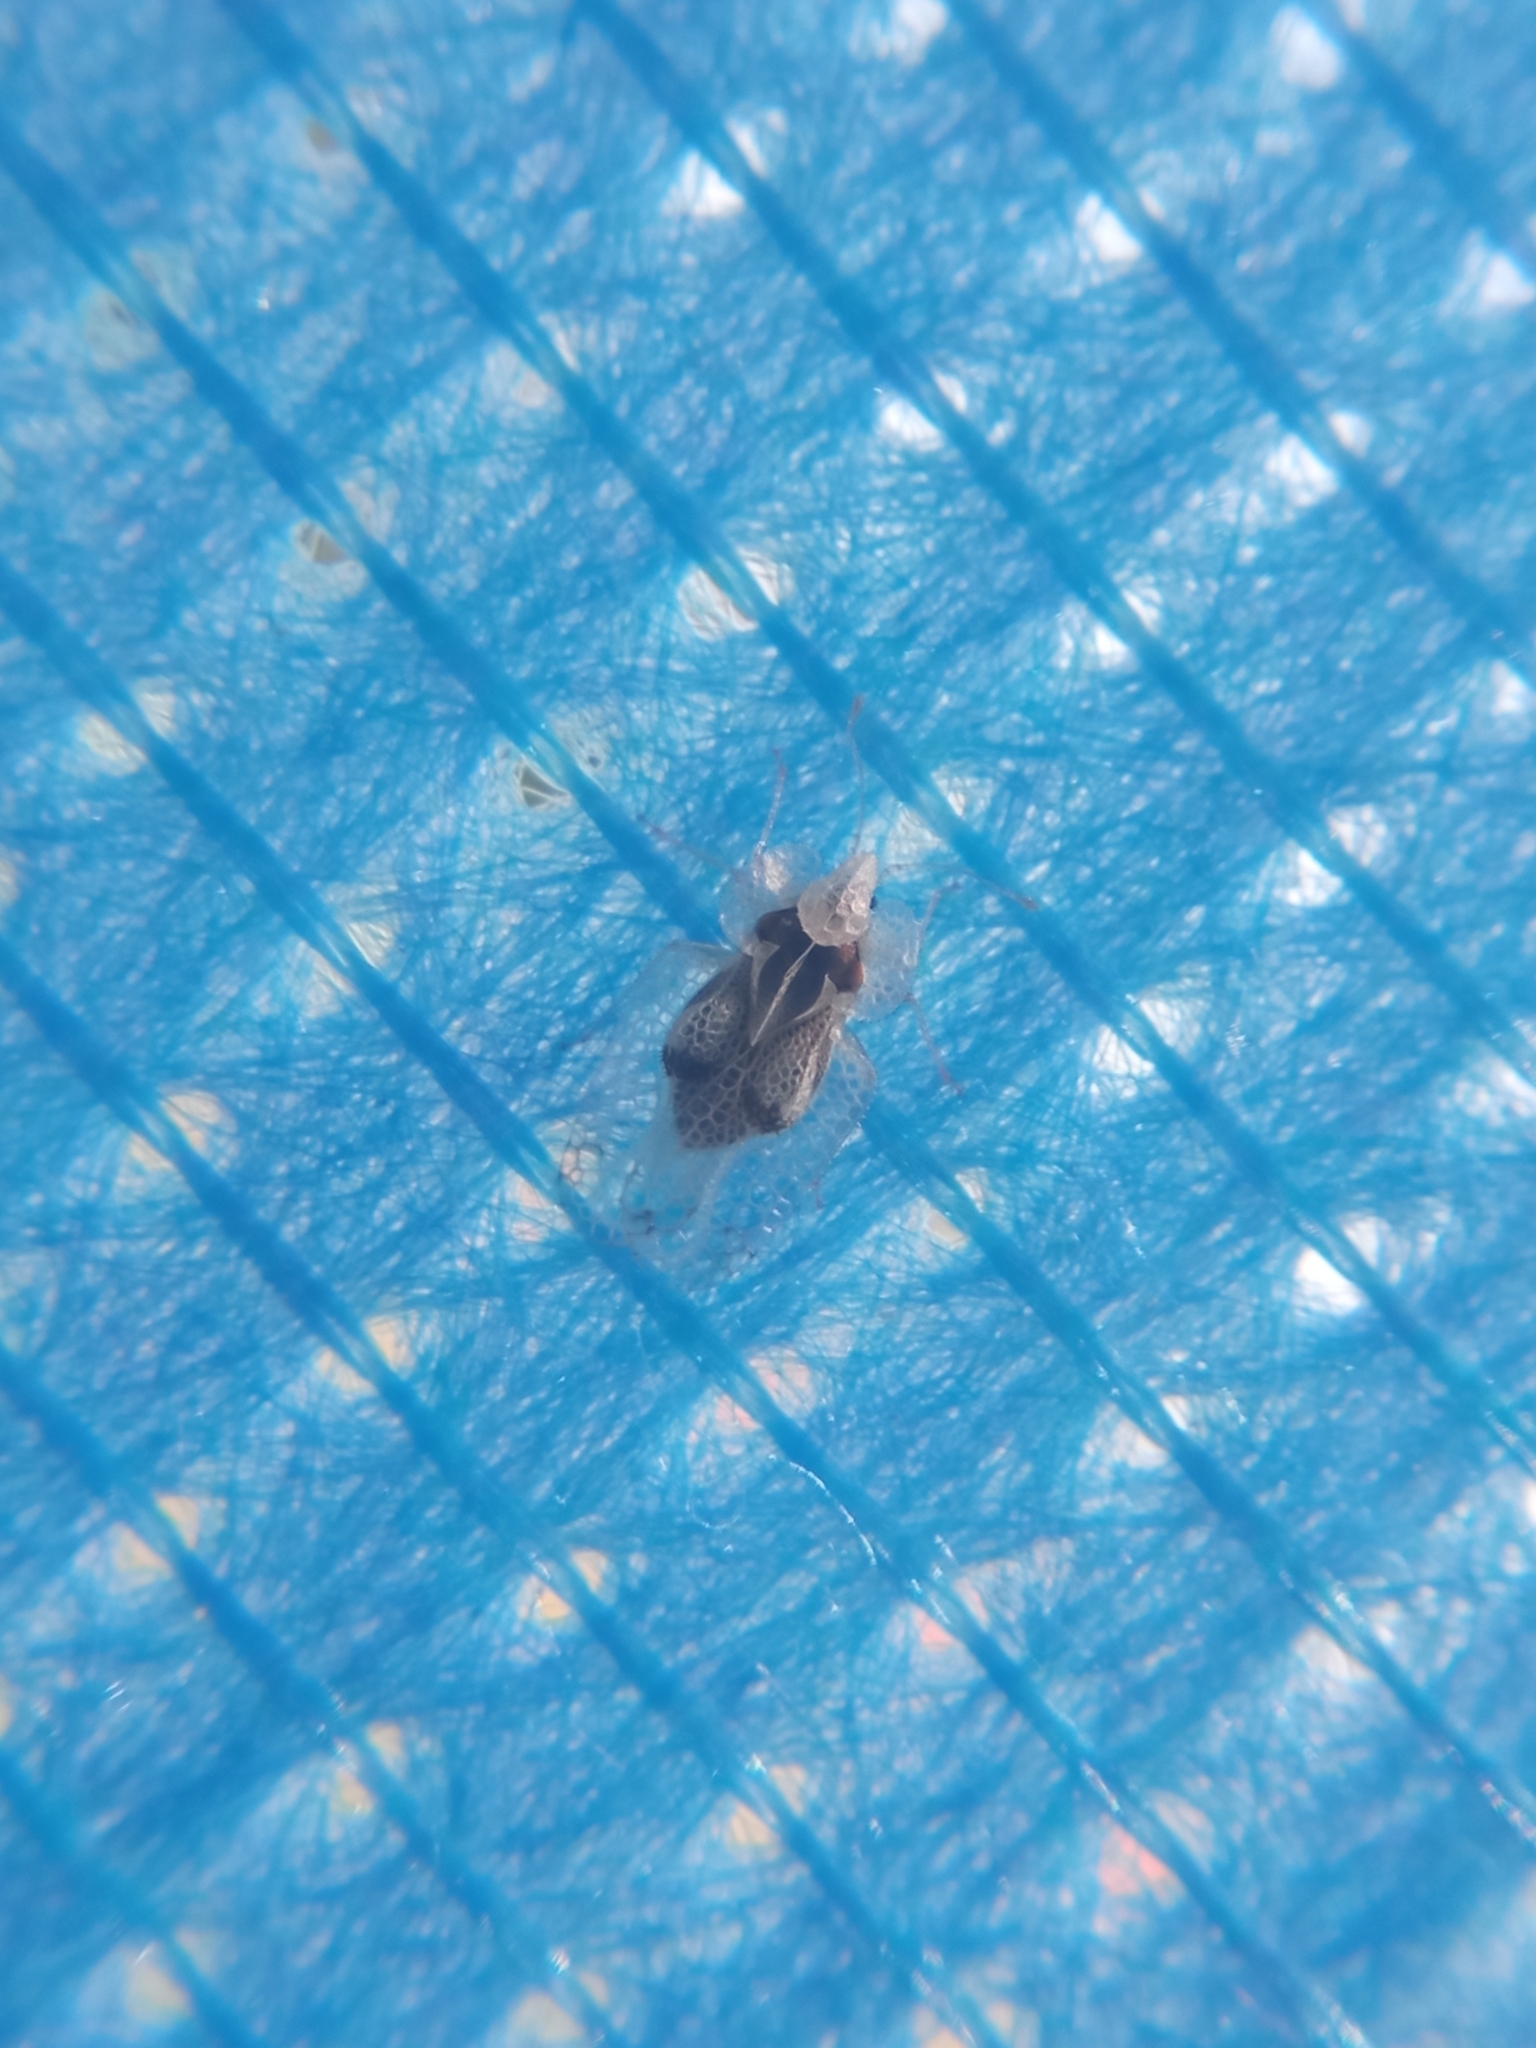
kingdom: Animalia
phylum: Arthropoda
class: Insecta
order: Hemiptera
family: Tingidae
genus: Corythucha
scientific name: Corythucha ciliata
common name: Sycamore lace bug
